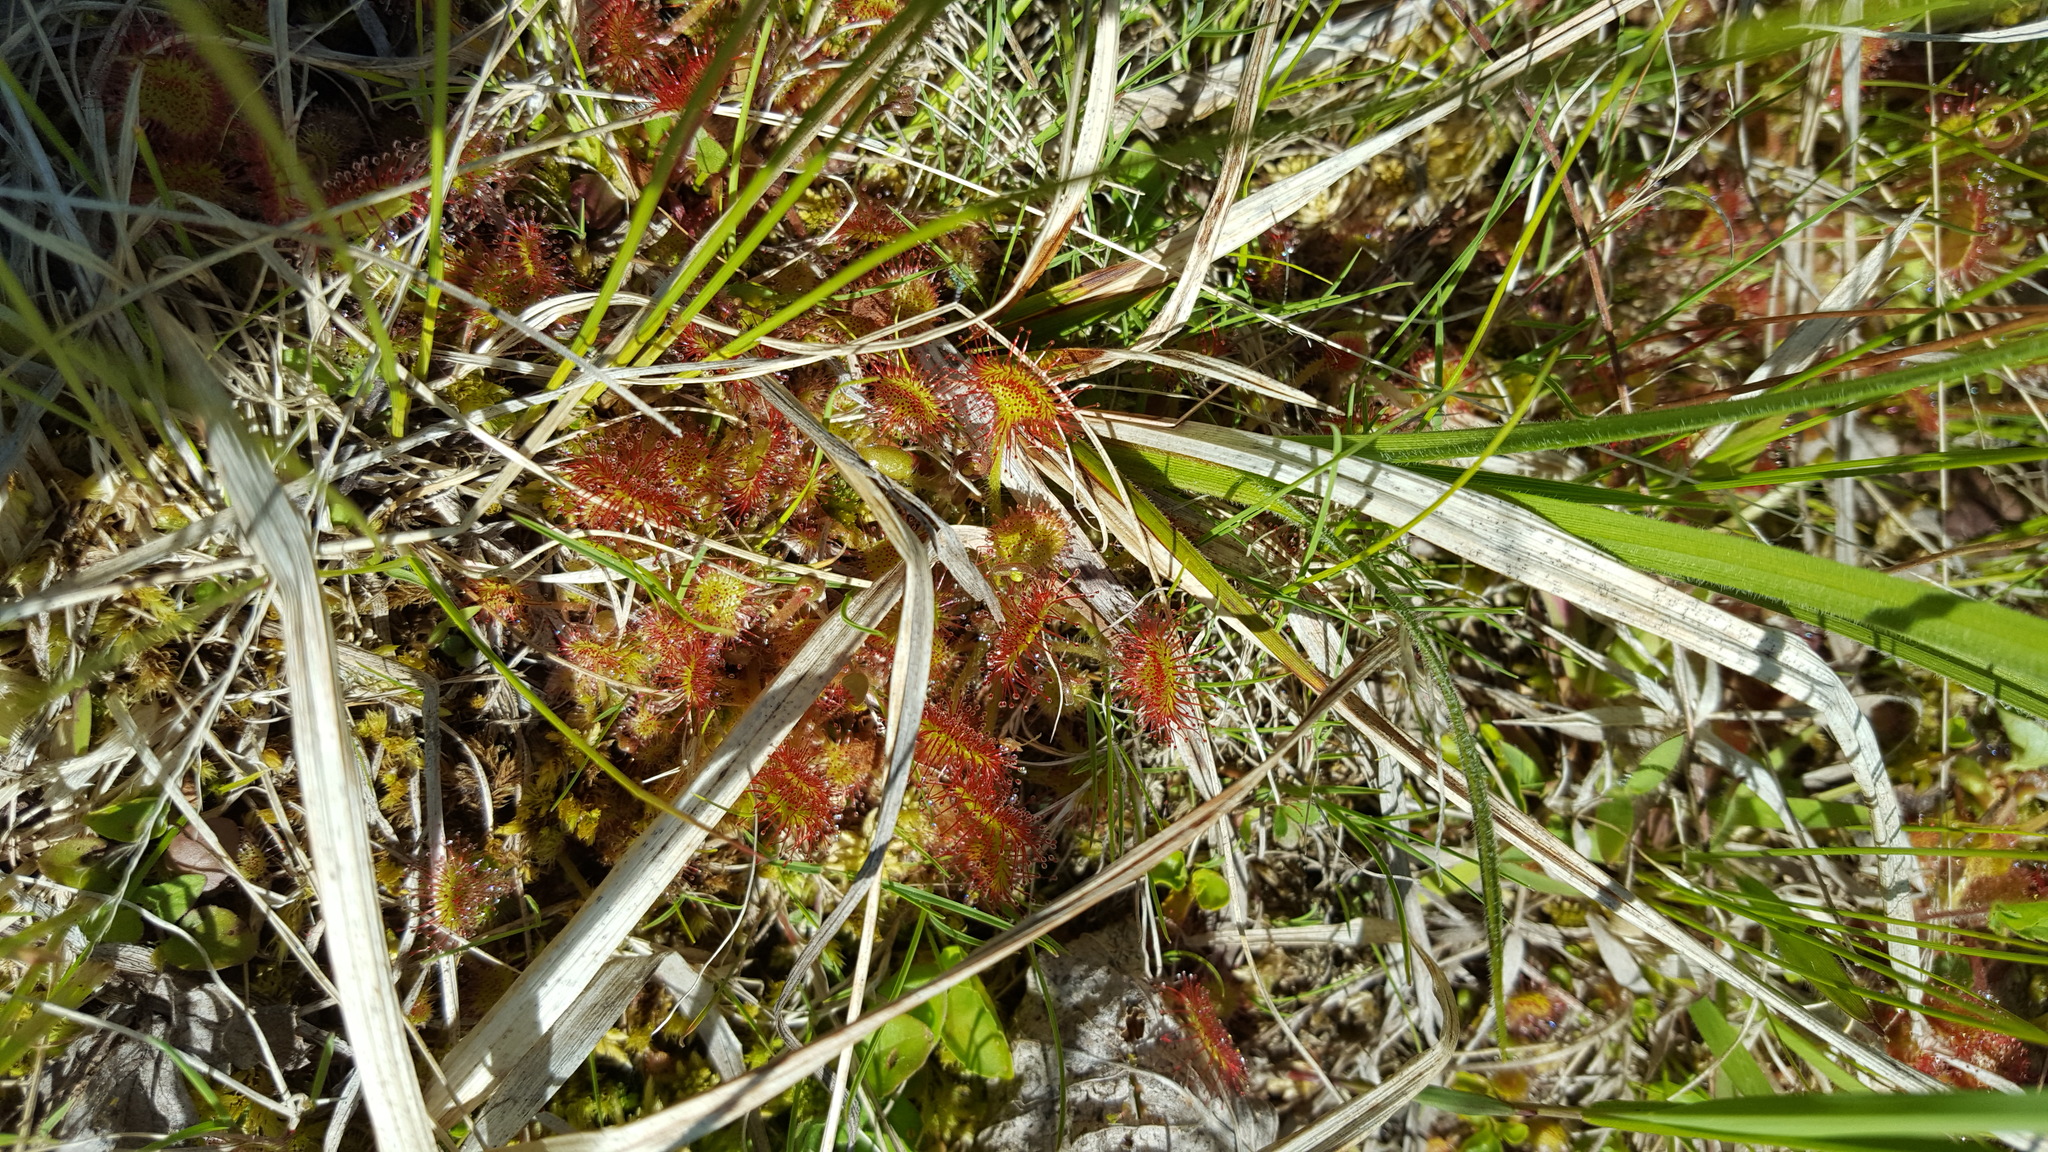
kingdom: Plantae
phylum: Tracheophyta
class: Magnoliopsida
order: Caryophyllales
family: Droseraceae
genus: Drosera
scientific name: Drosera rotundifolia
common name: Round-leaved sundew
